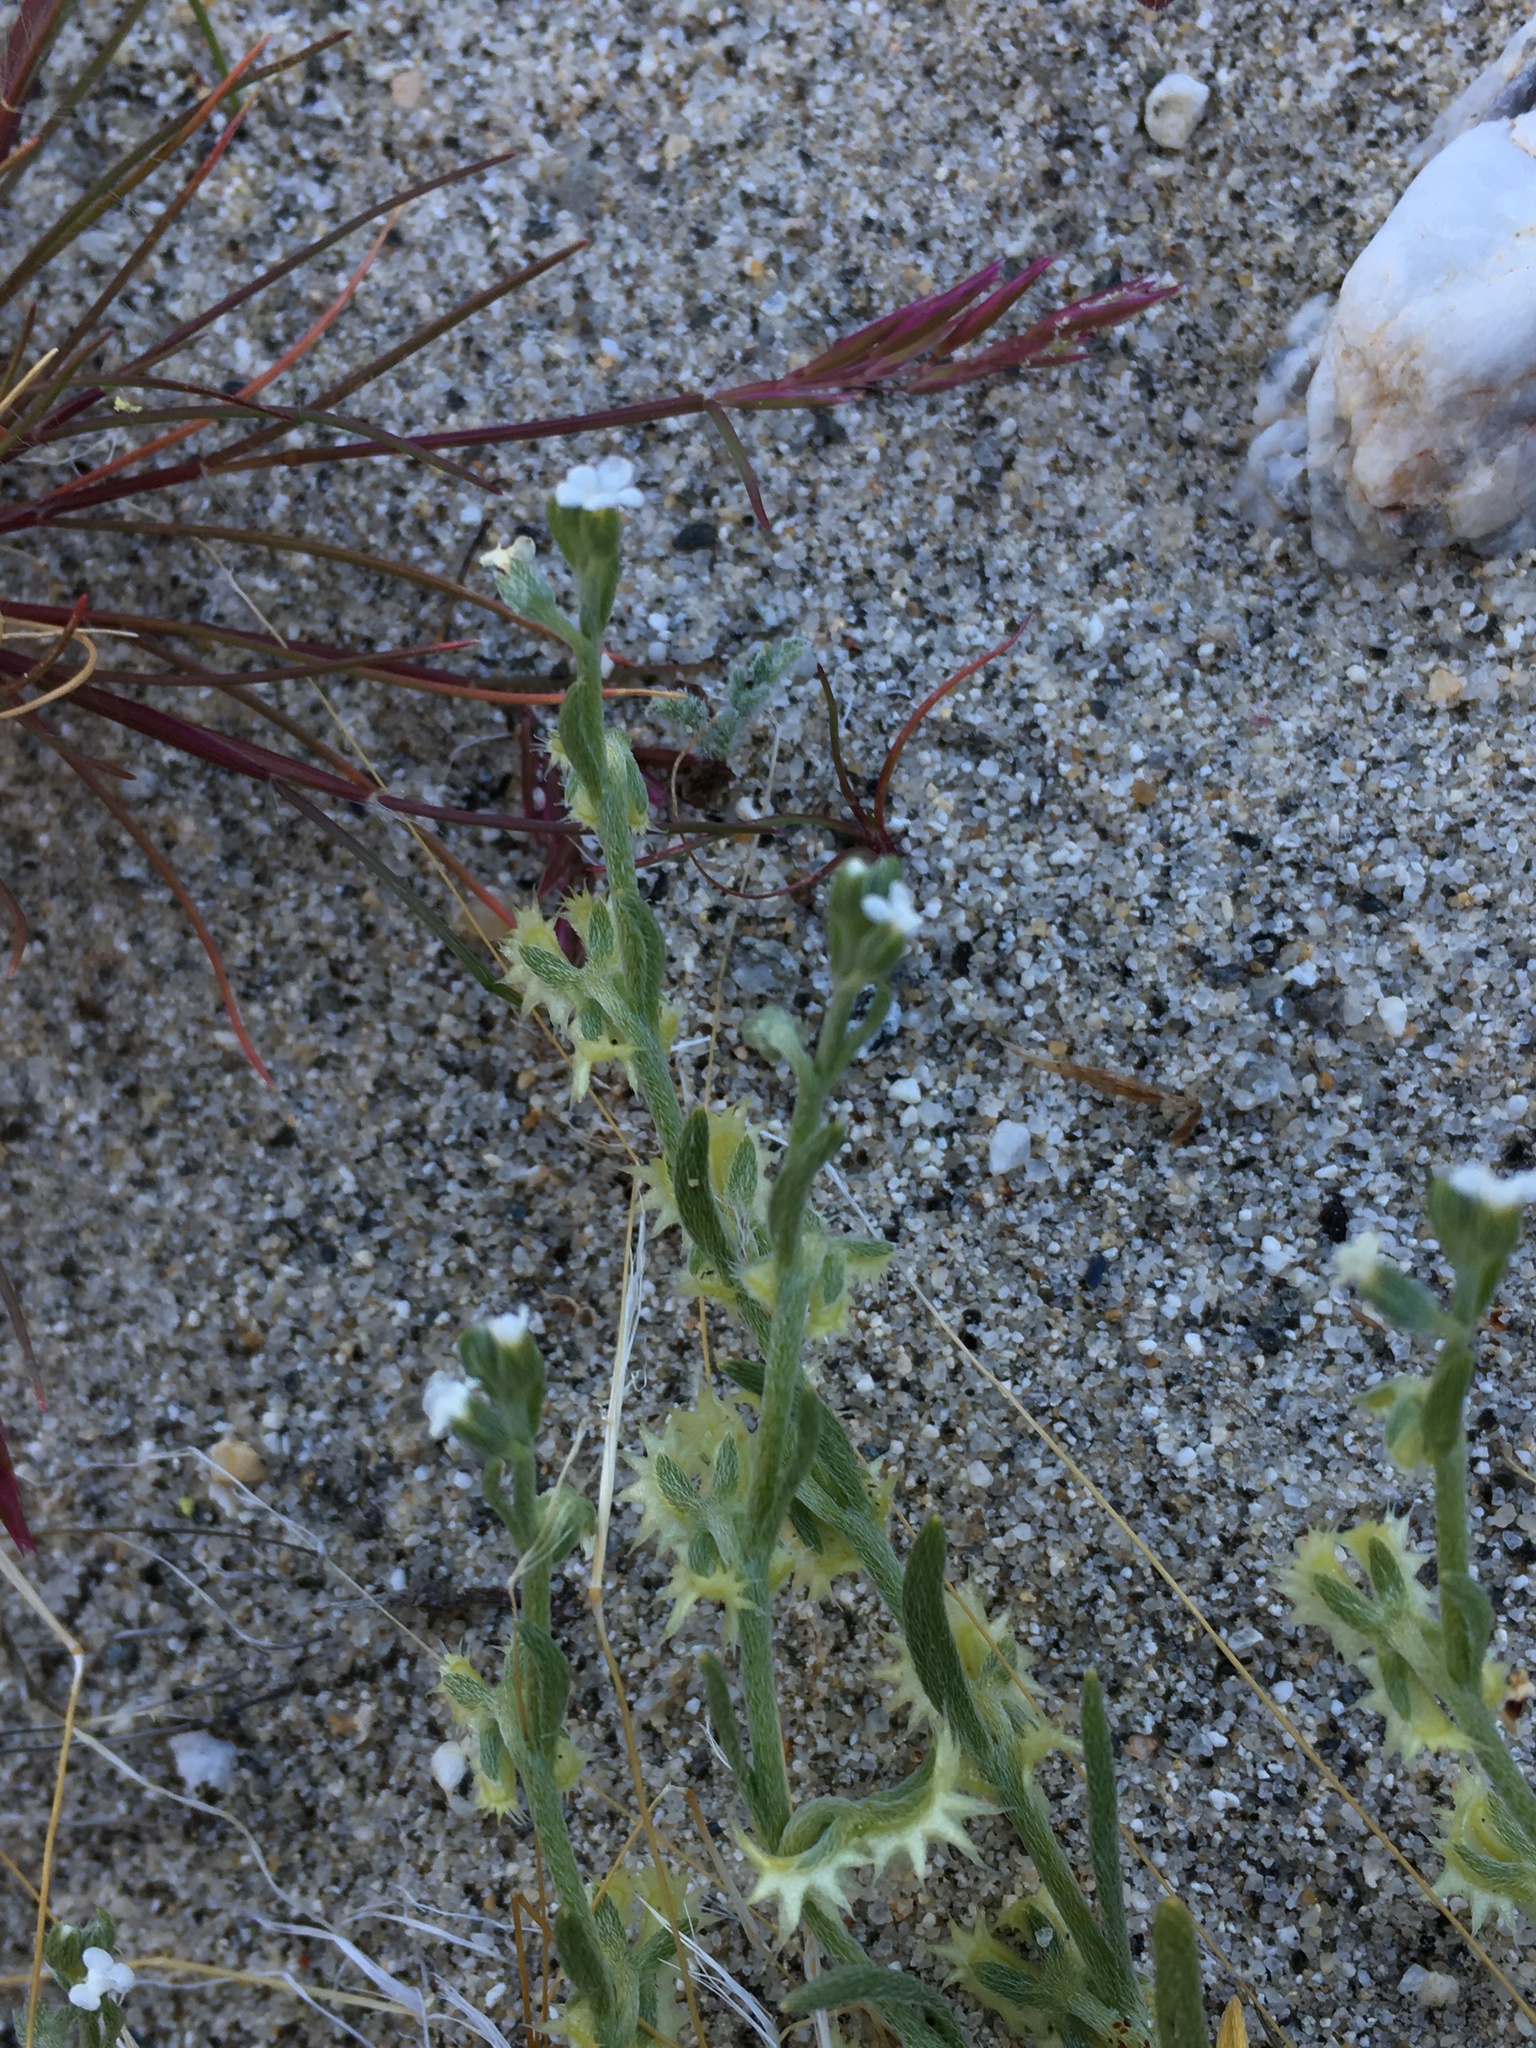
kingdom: Plantae
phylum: Tracheophyta
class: Magnoliopsida
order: Boraginales
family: Boraginaceae
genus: Pectocarya
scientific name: Pectocarya platycarpa
